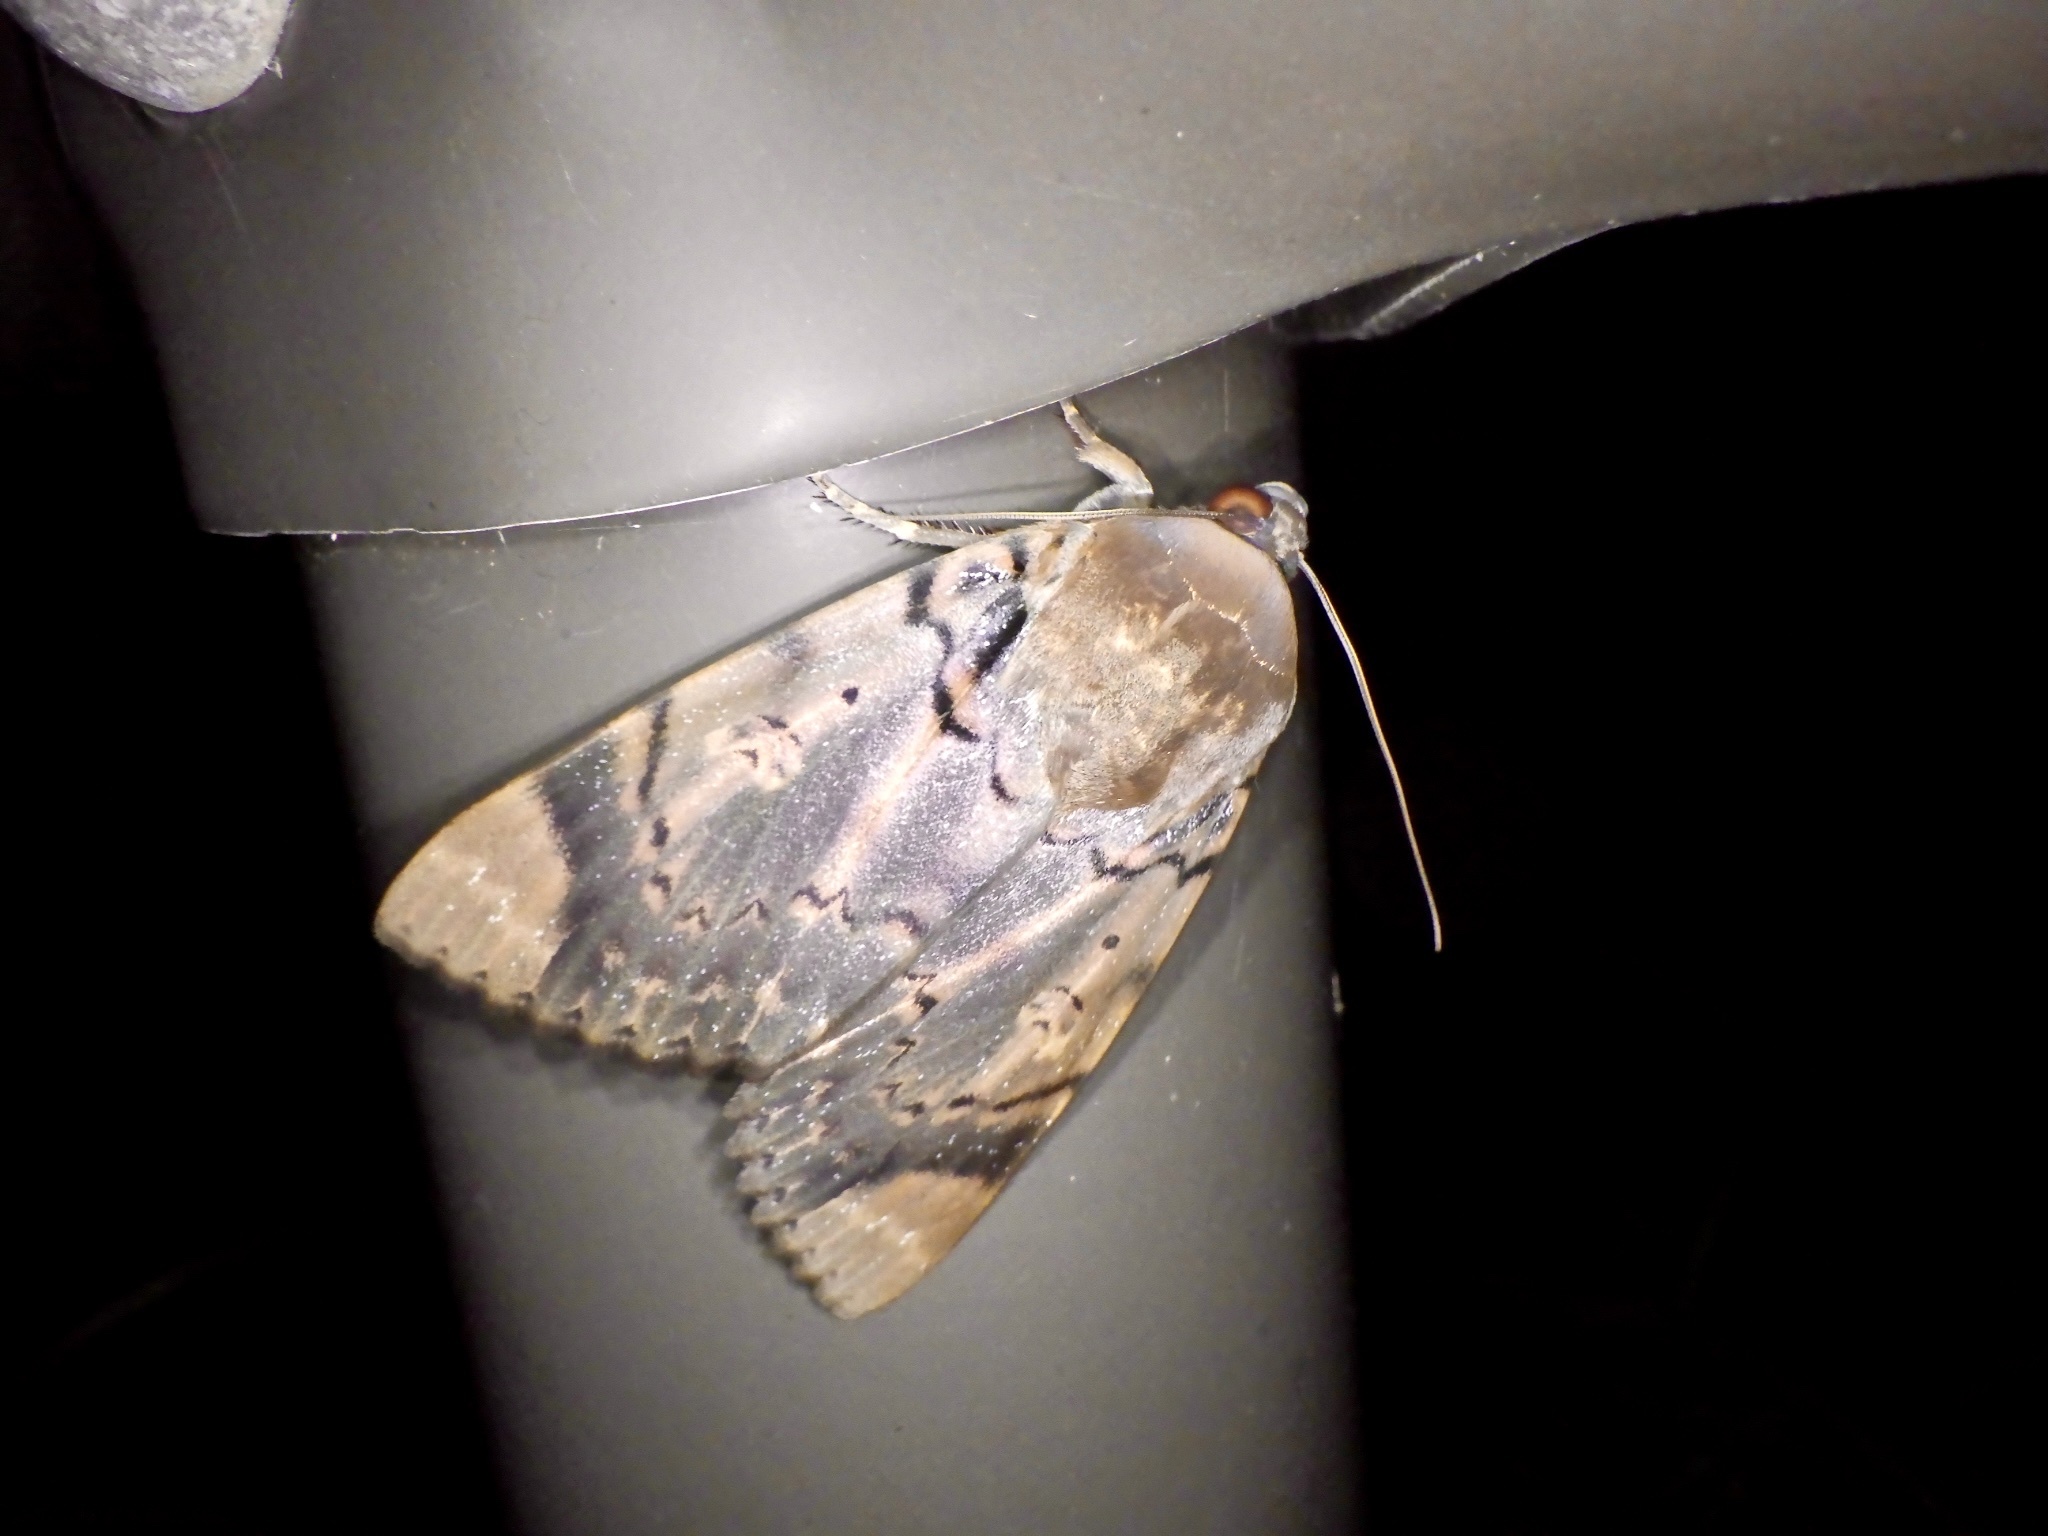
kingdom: Animalia
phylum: Arthropoda
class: Insecta
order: Lepidoptera
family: Erebidae
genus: Arcte
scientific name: Arcte coerula
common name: Ramie moth
